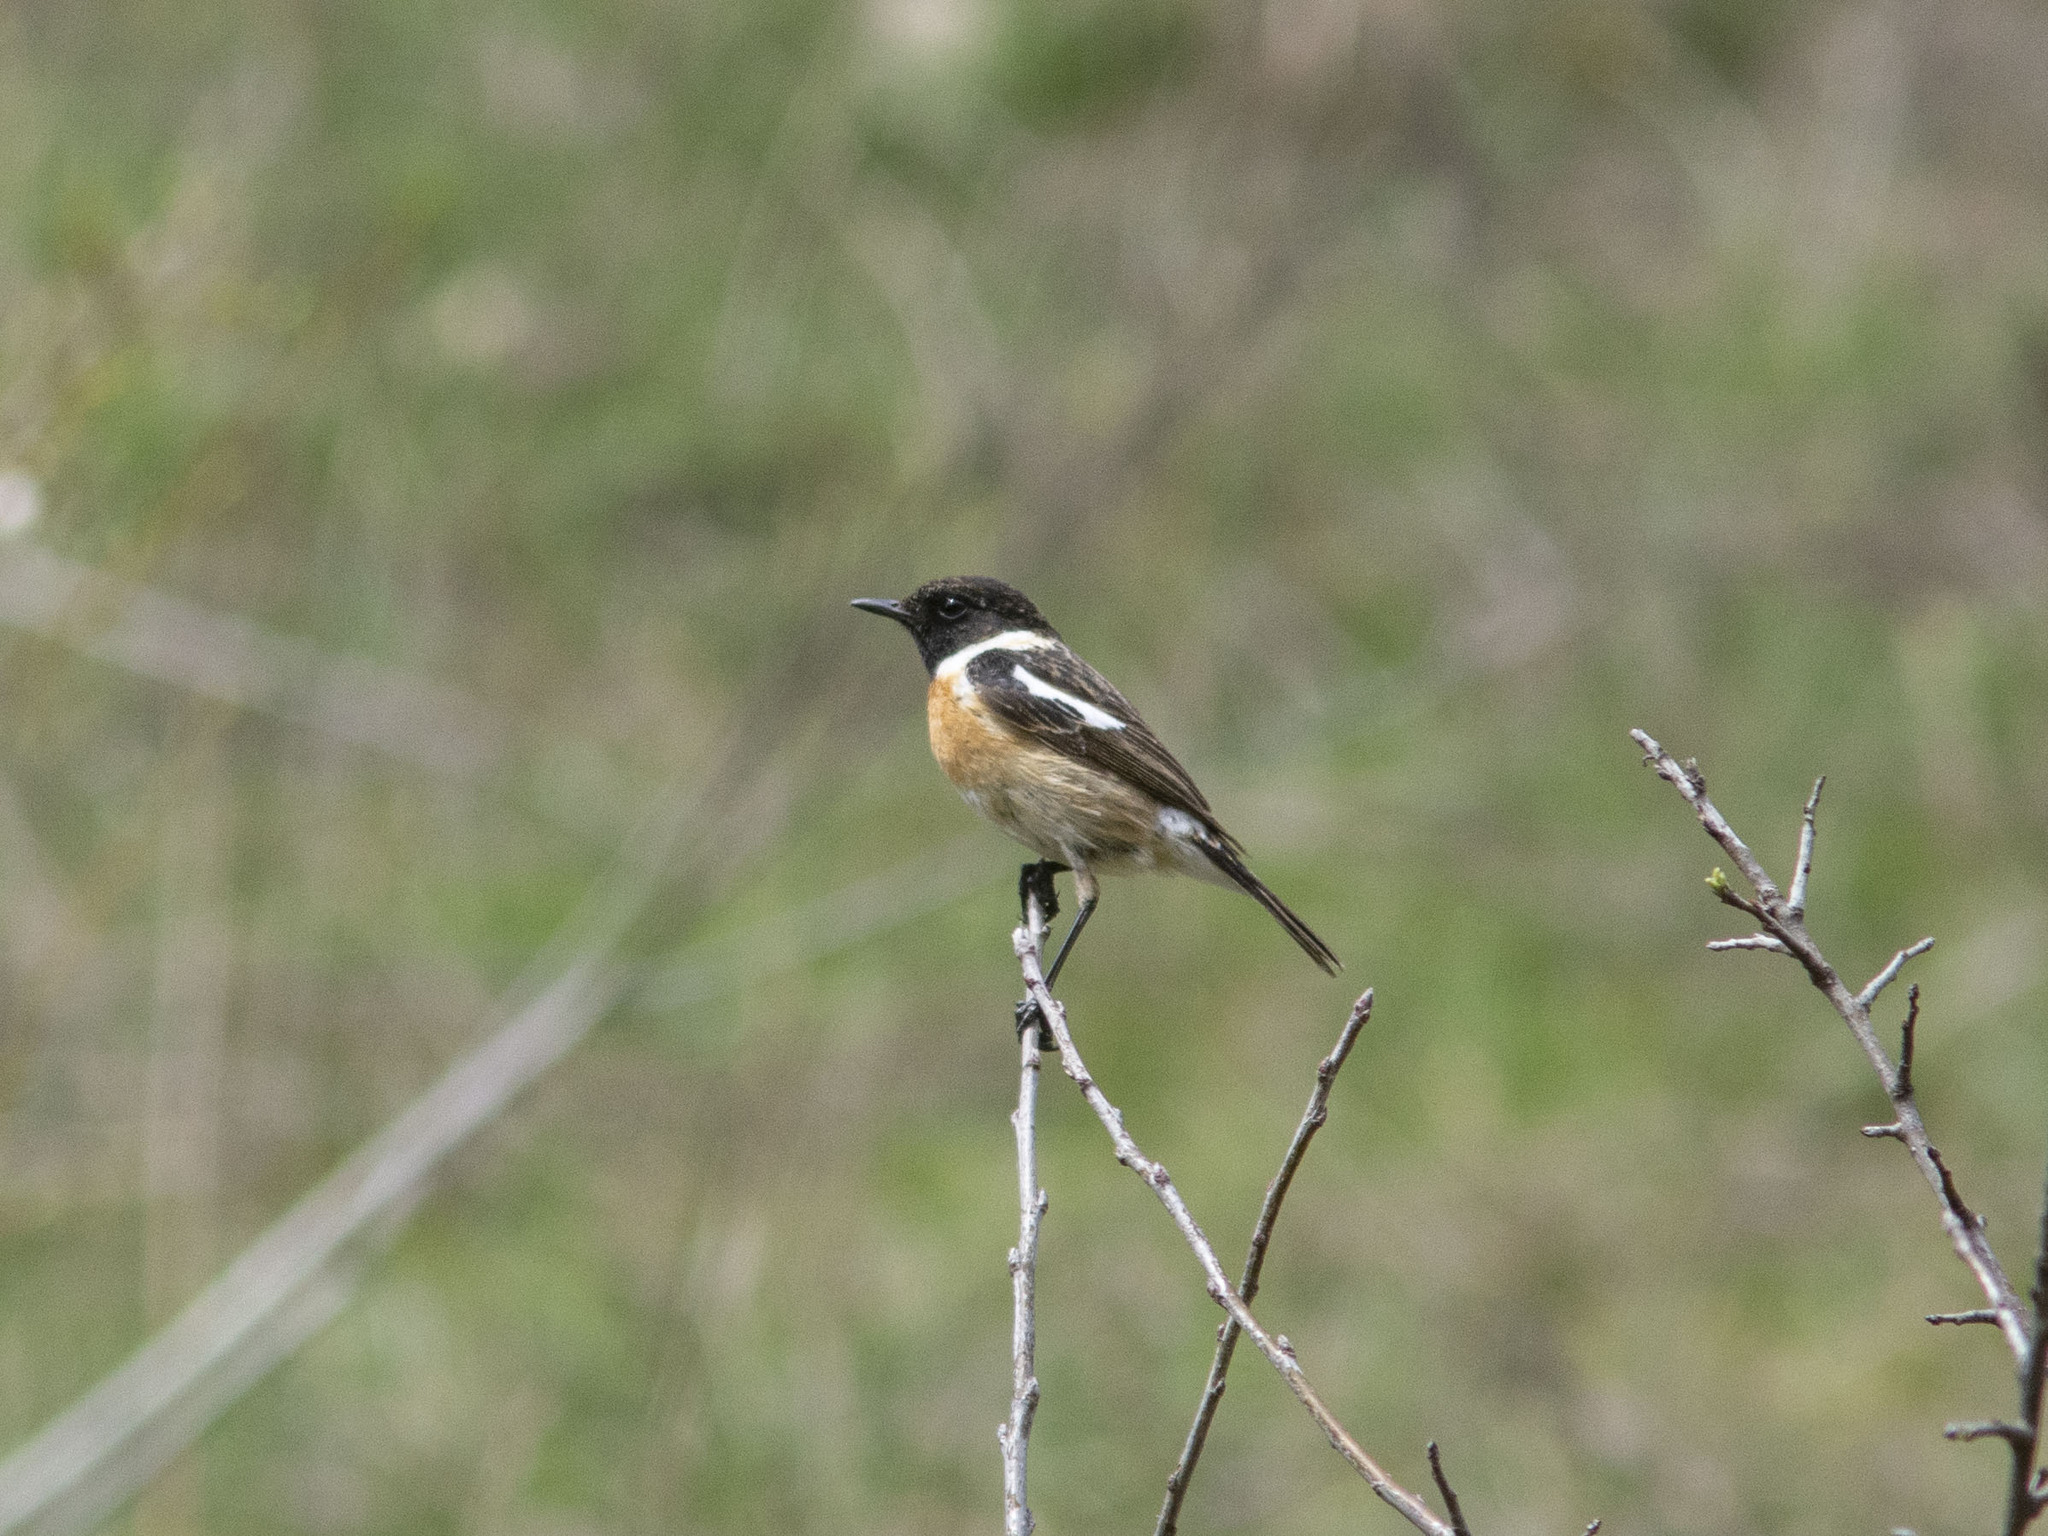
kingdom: Animalia
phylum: Chordata
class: Aves
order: Passeriformes
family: Muscicapidae
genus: Saxicola
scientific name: Saxicola rubicola
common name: European stonechat
